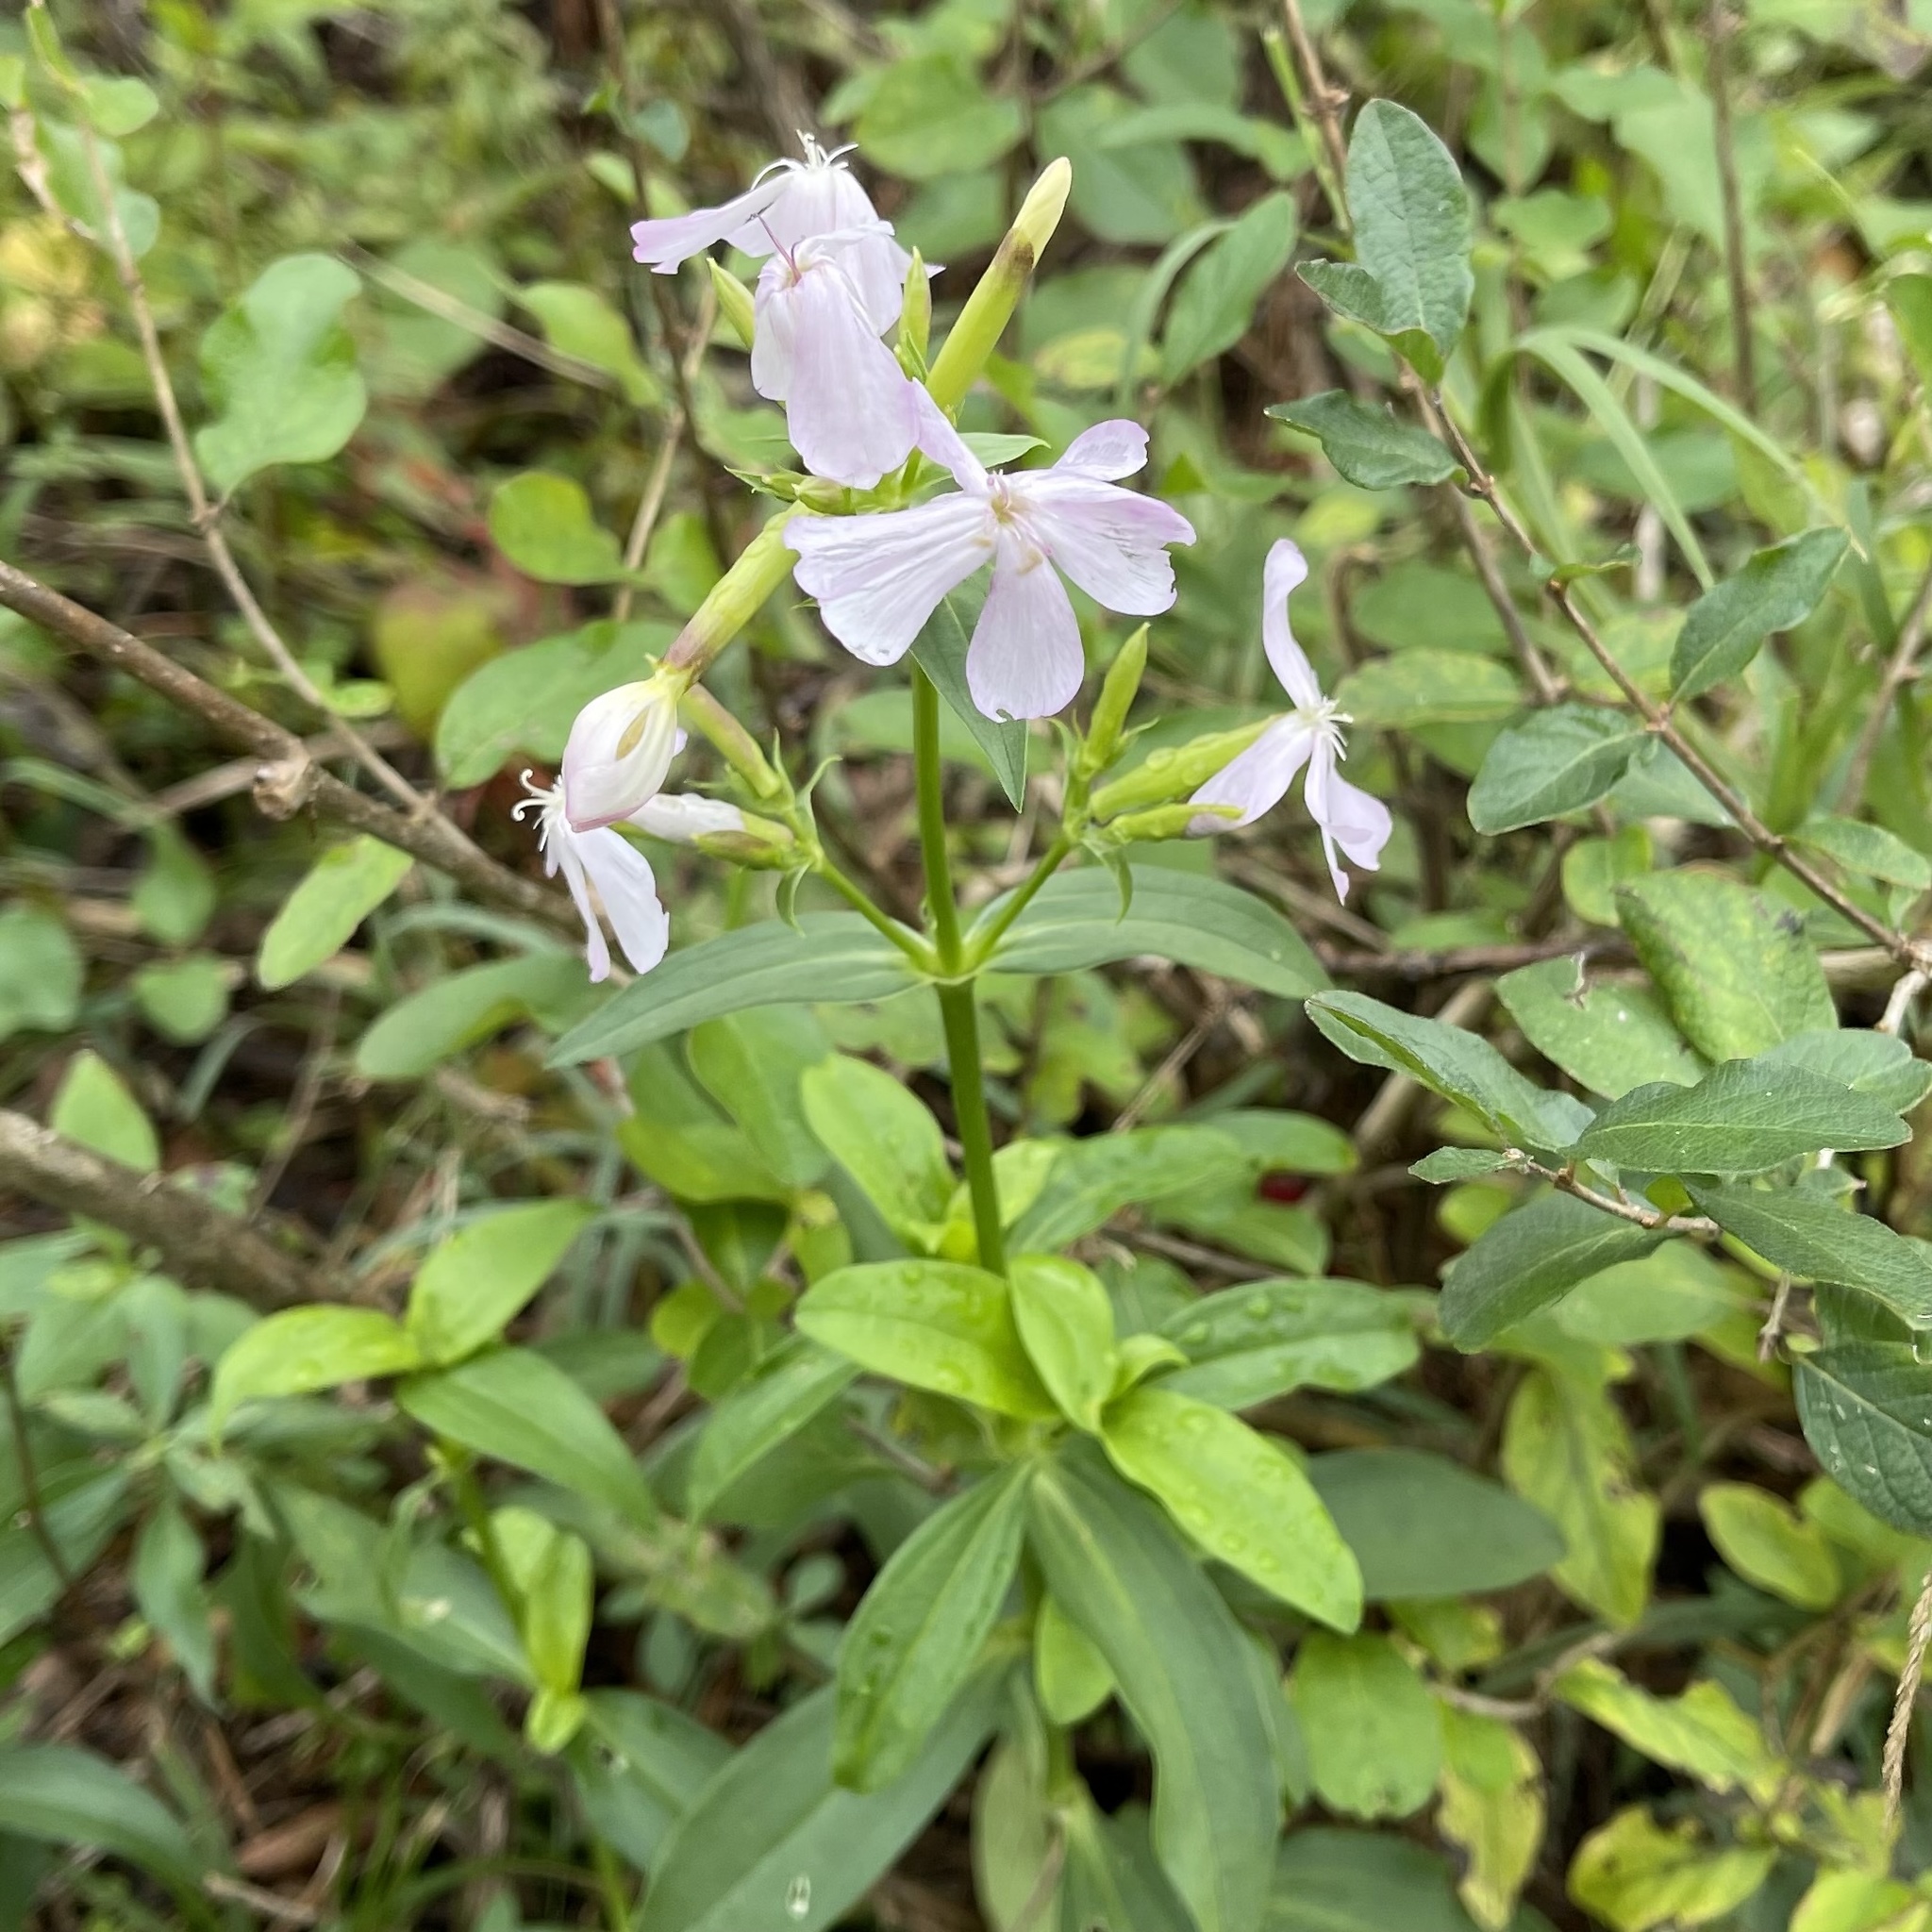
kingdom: Plantae
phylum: Tracheophyta
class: Magnoliopsida
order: Caryophyllales
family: Caryophyllaceae
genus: Saponaria
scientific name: Saponaria officinalis
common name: Soapwort
